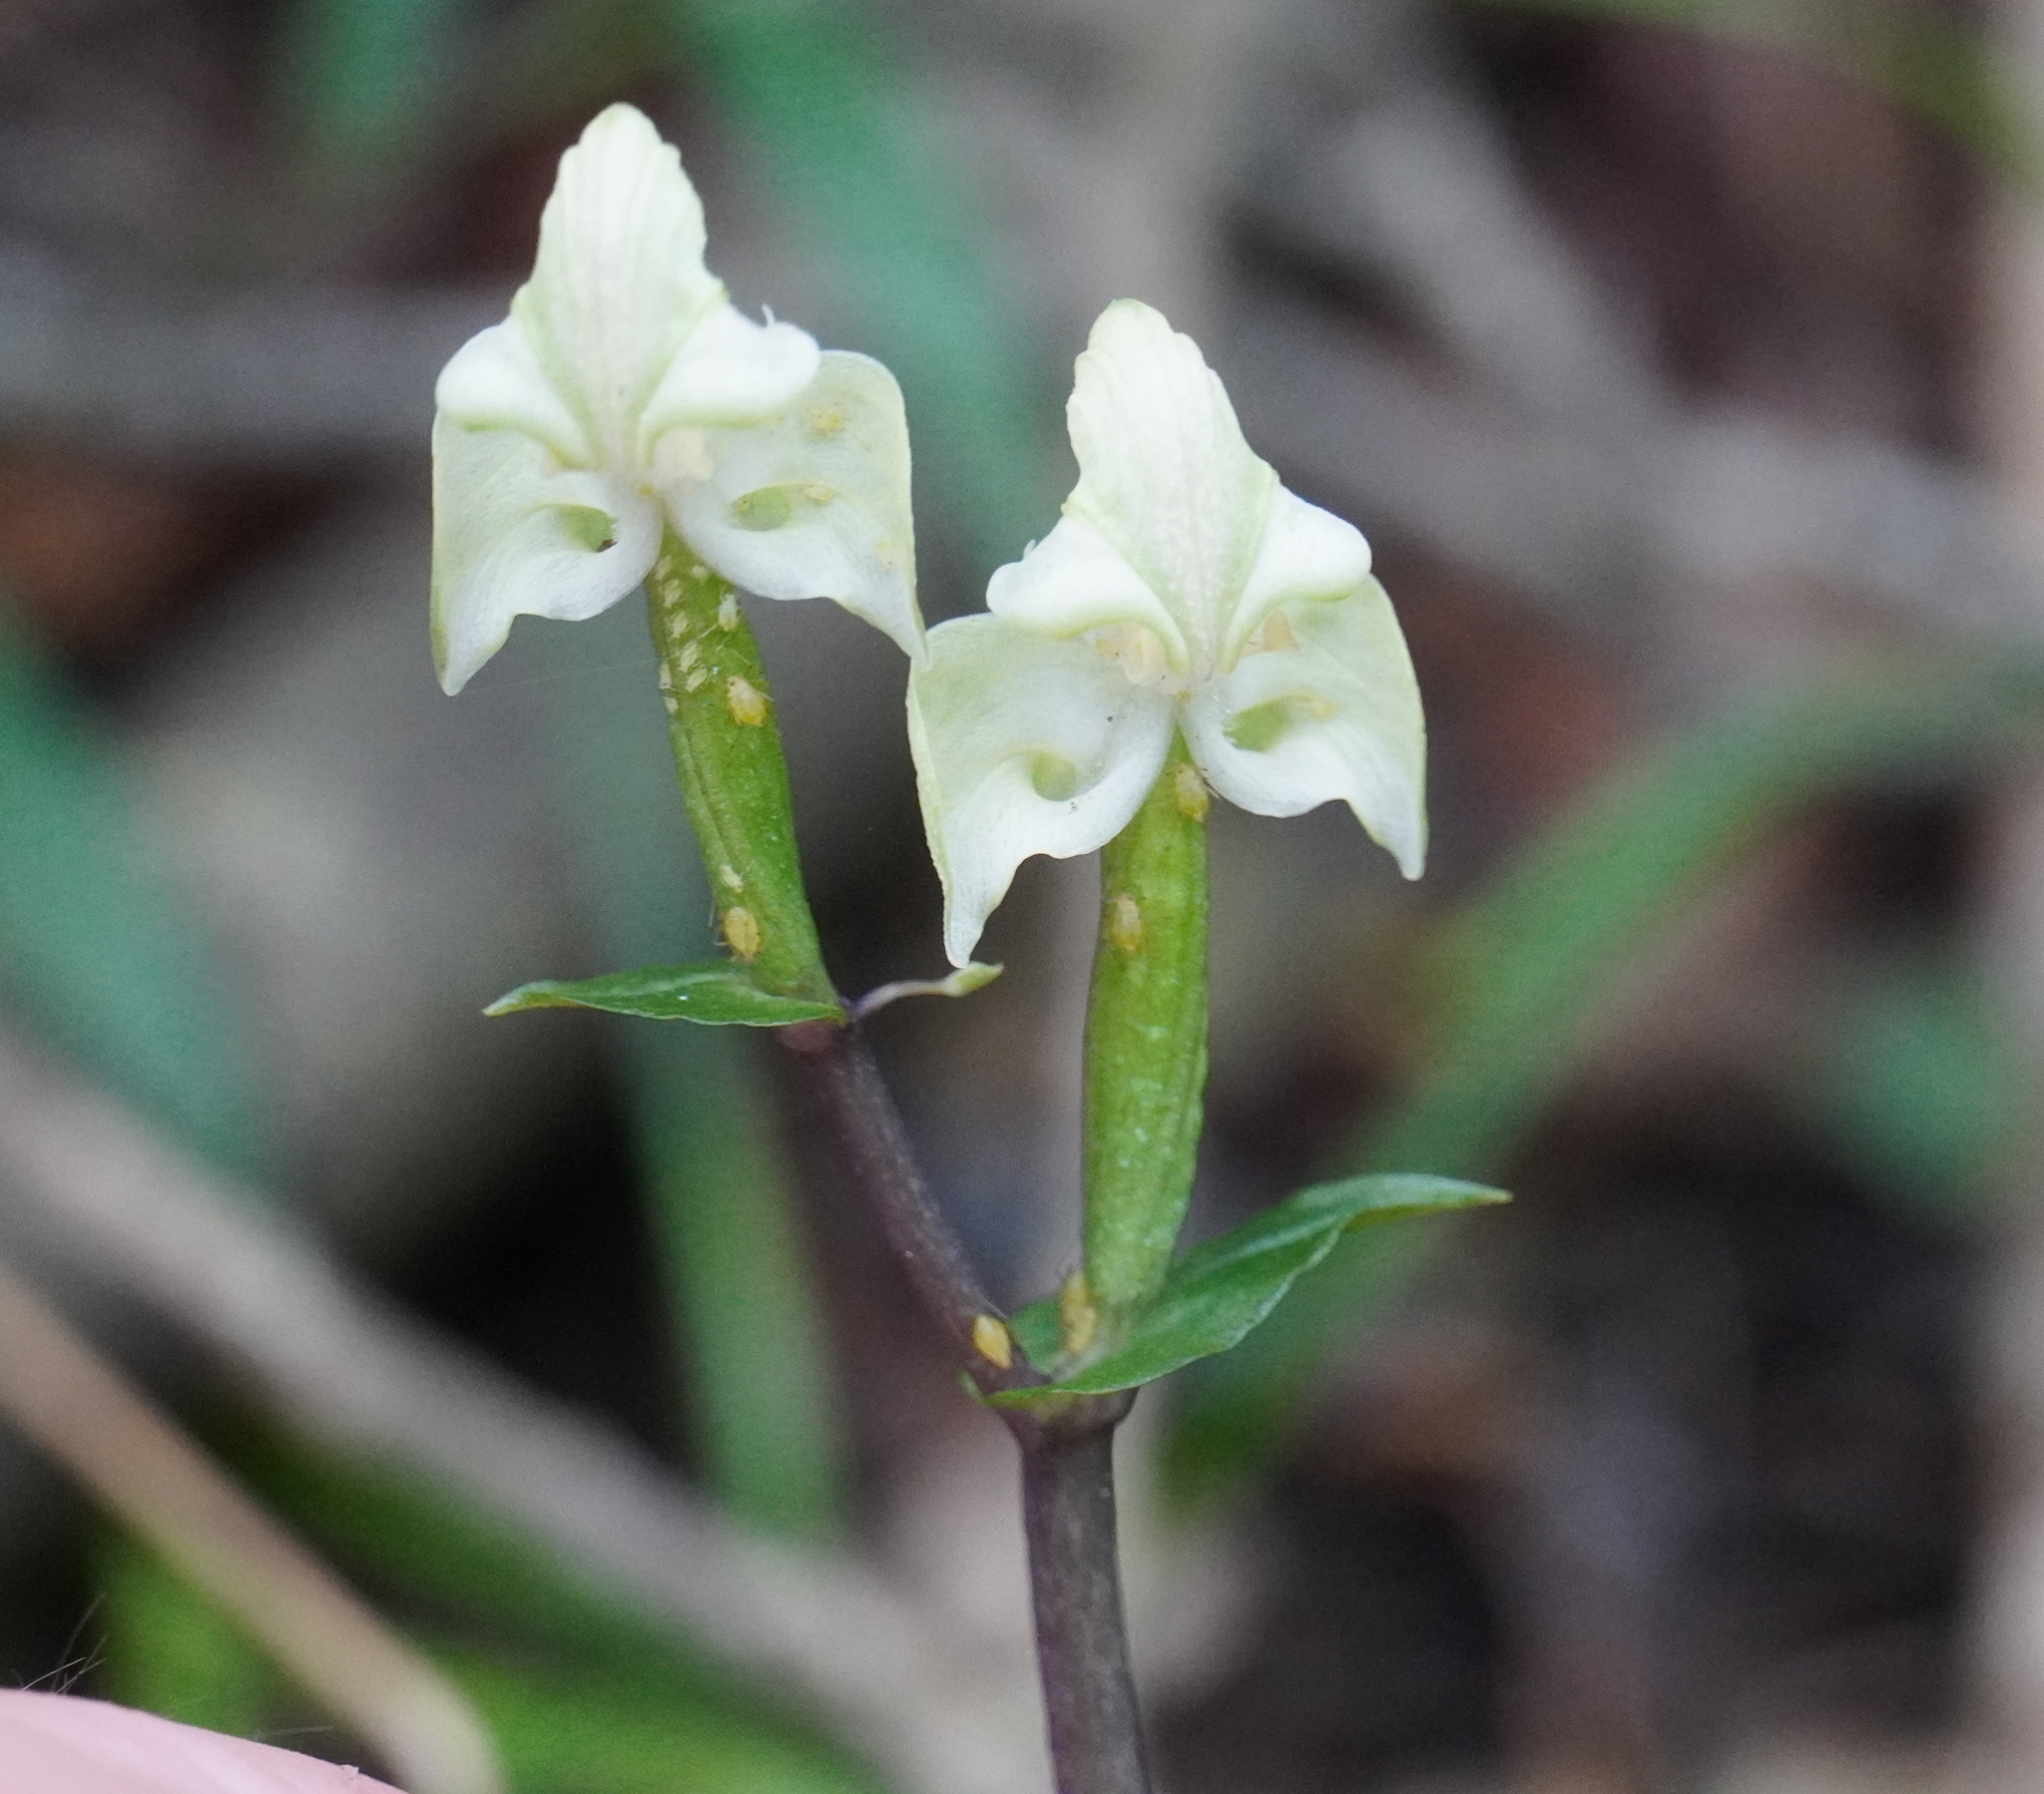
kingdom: Plantae
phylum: Tracheophyta
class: Liliopsida
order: Asparagales
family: Orchidaceae
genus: Disperis
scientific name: Disperis lindleyana
